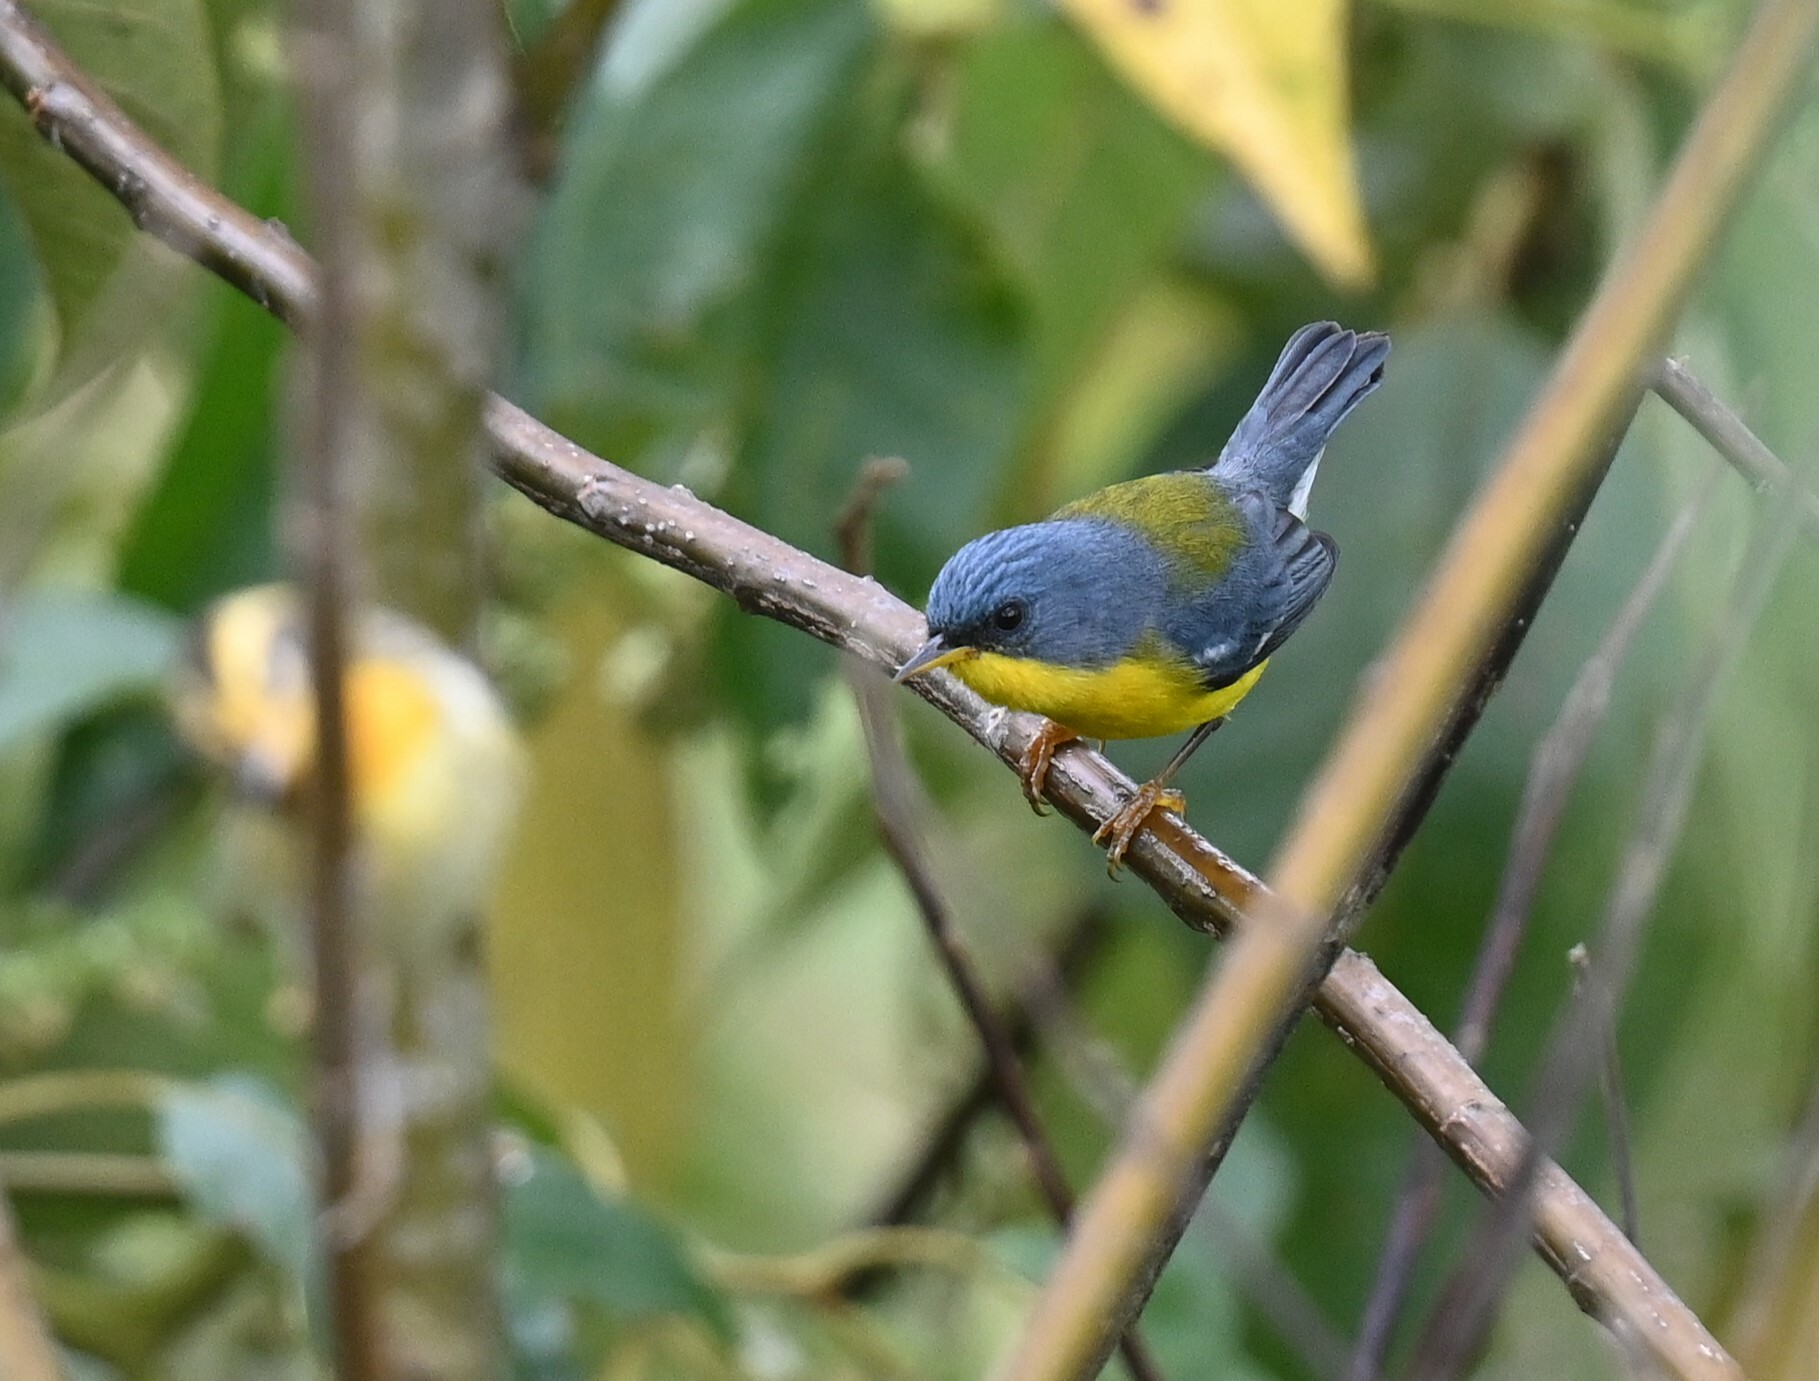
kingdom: Animalia
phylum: Chordata
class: Aves
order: Passeriformes
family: Parulidae
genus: Setophaga
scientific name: Setophaga pitiayumi
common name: Tropical parula
